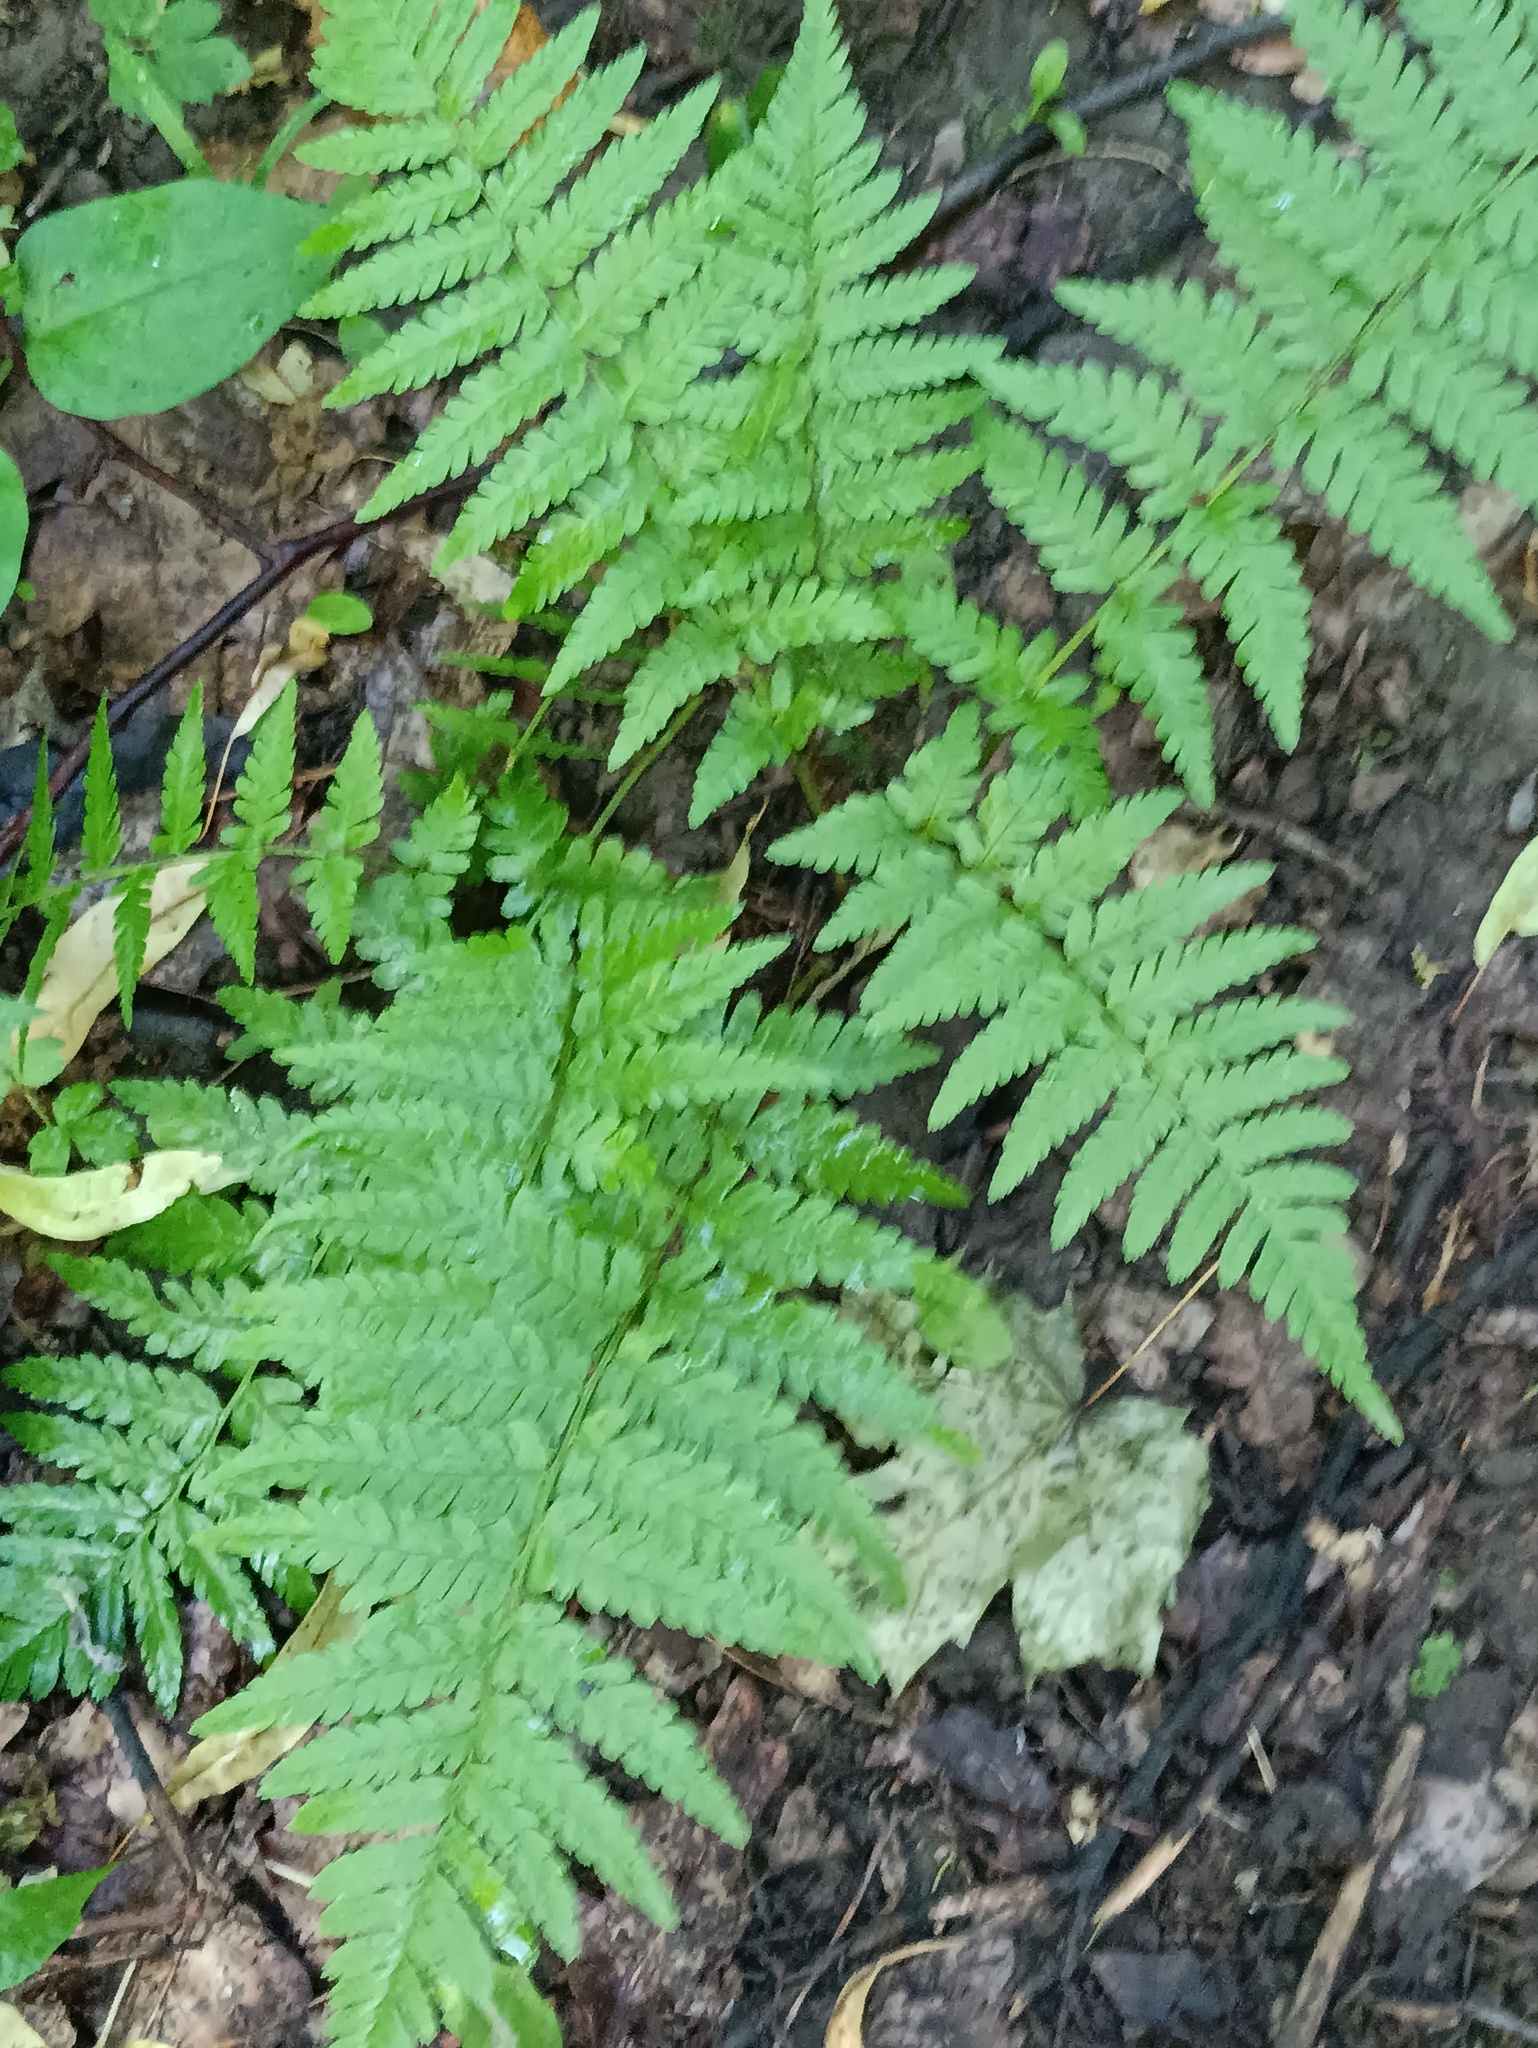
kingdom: Plantae
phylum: Tracheophyta
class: Polypodiopsida
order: Polypodiales
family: Dryopteridaceae
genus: Dryopteris
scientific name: Dryopteris filix-mas
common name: Male fern
